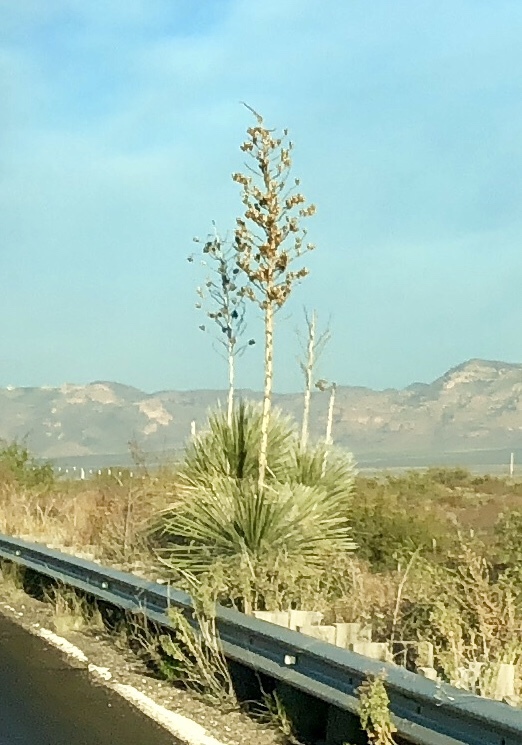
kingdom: Plantae
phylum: Tracheophyta
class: Liliopsida
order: Asparagales
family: Asparagaceae
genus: Yucca
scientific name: Yucca elata
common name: Palmella
